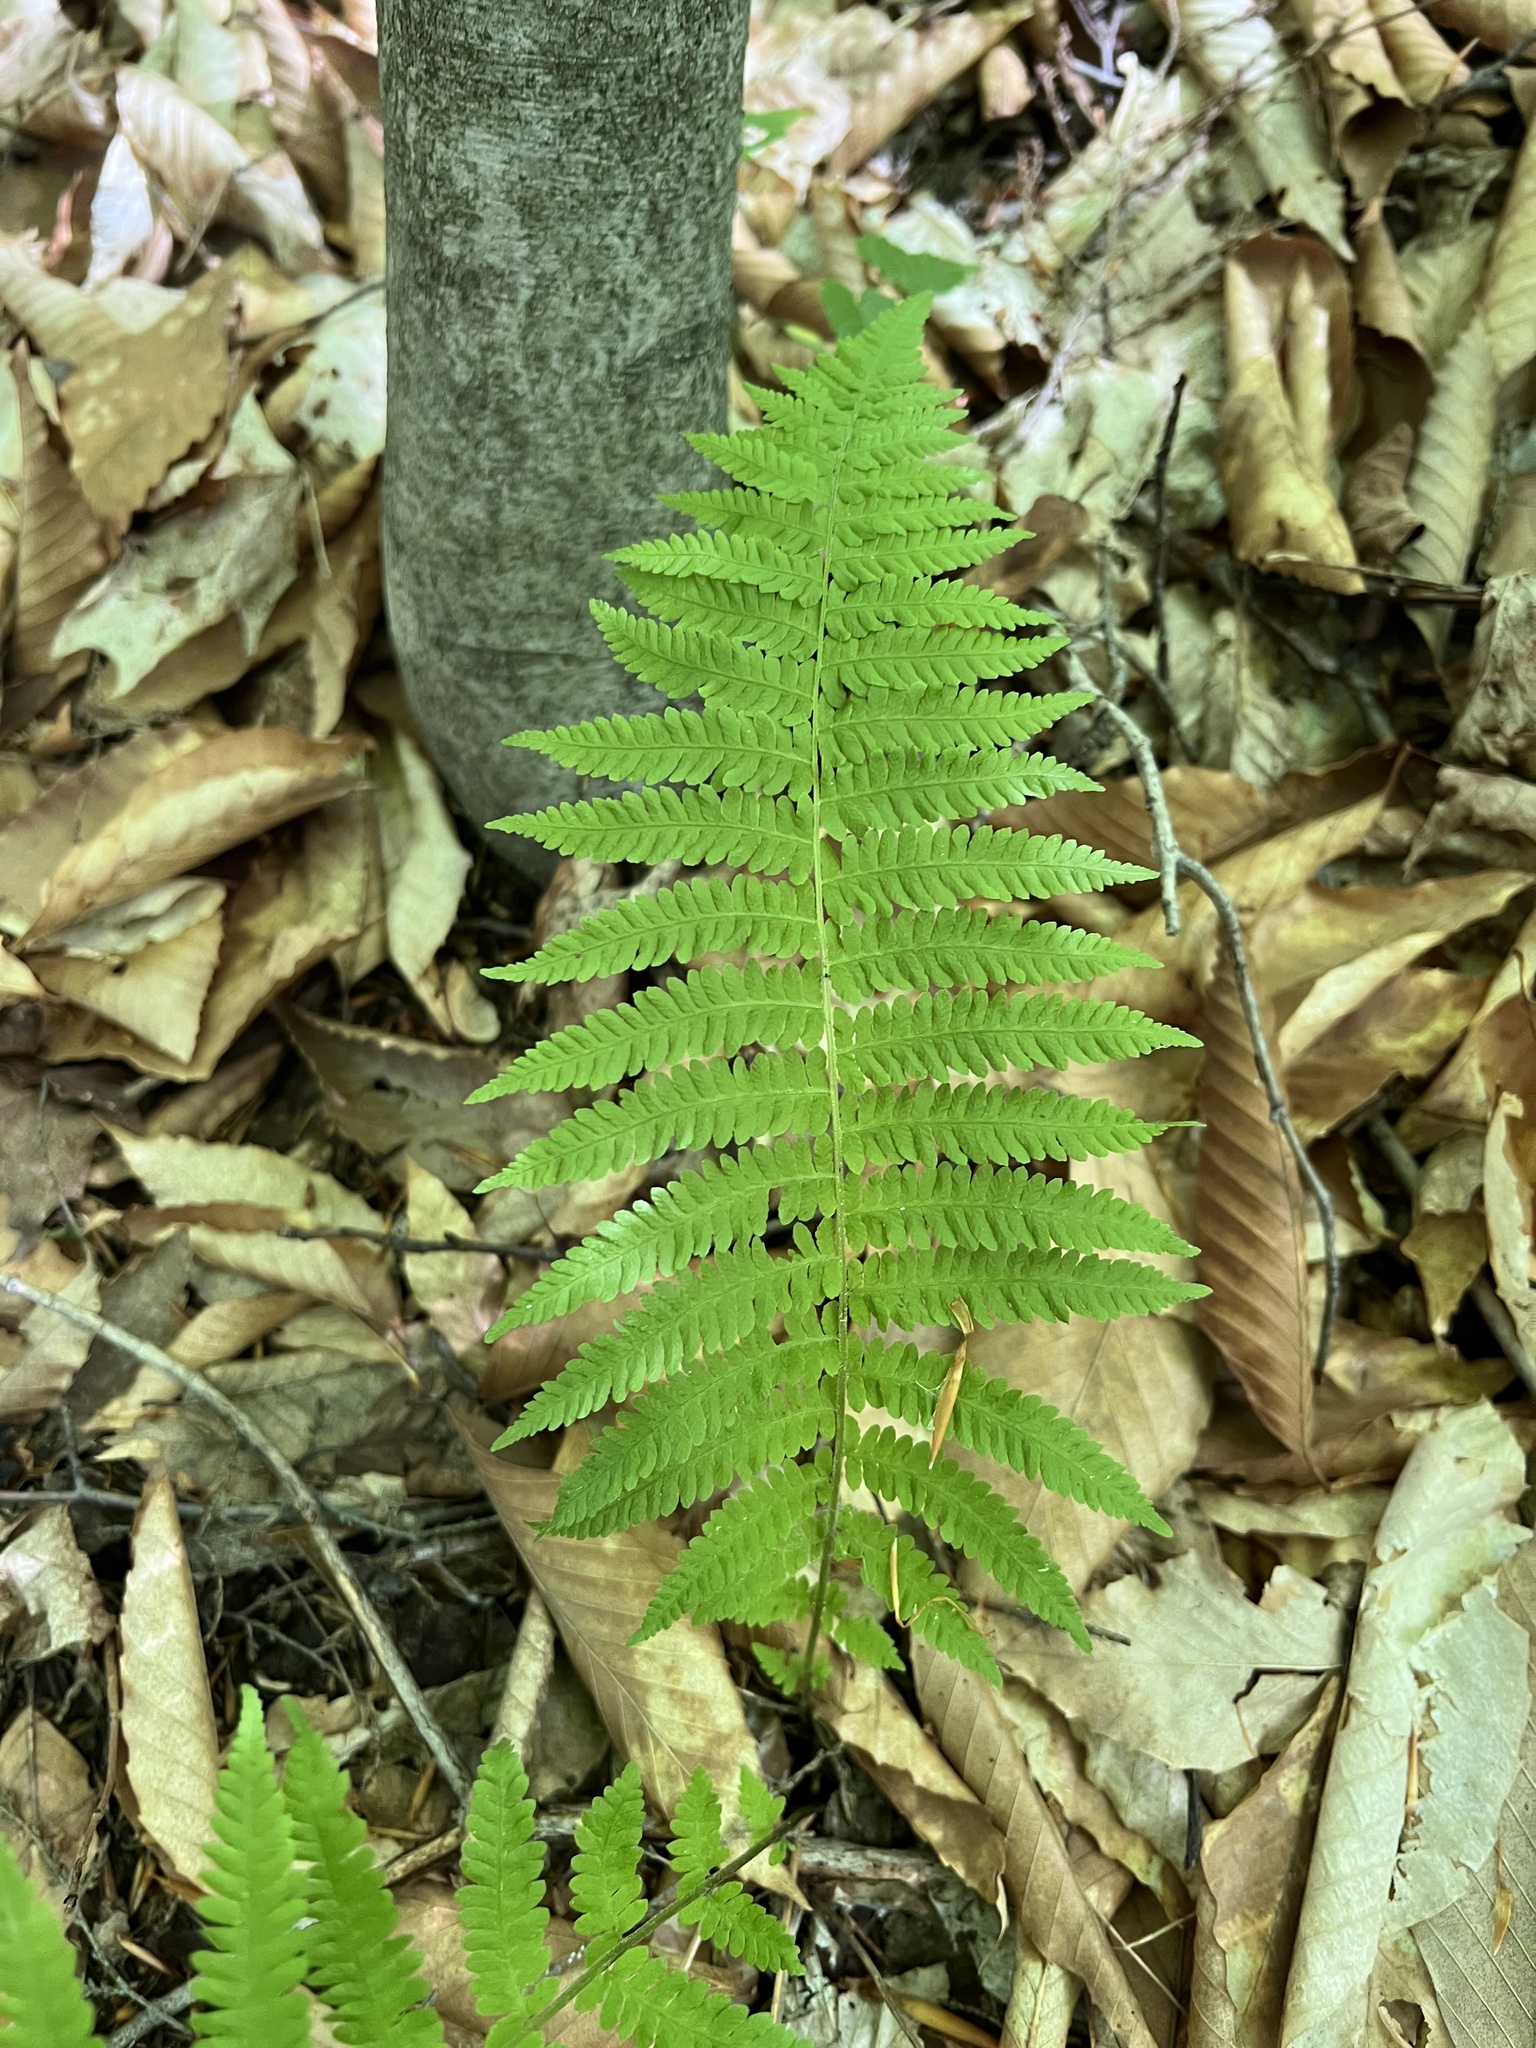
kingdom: Plantae
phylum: Tracheophyta
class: Polypodiopsida
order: Polypodiales
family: Thelypteridaceae
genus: Amauropelta
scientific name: Amauropelta noveboracensis
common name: New york fern
